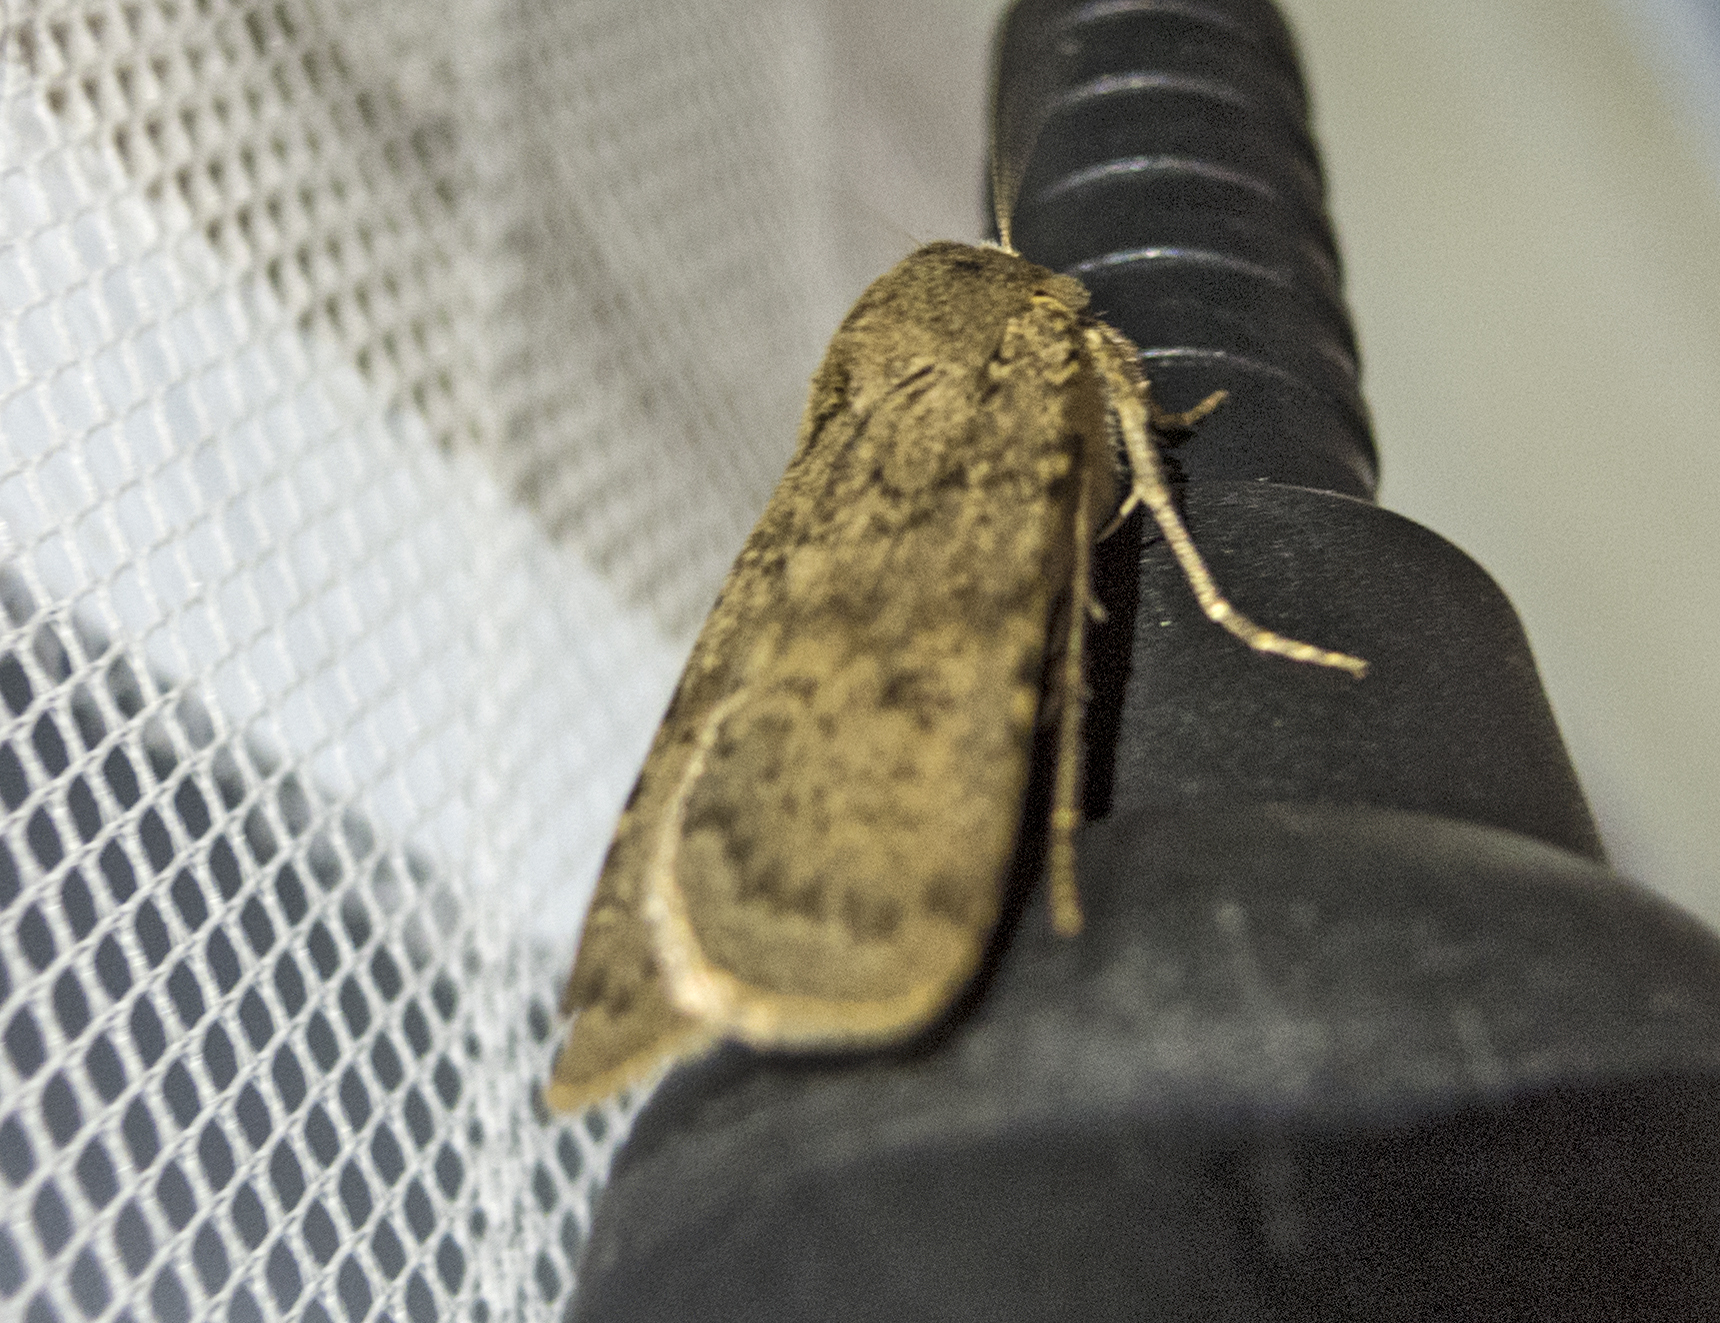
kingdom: Animalia
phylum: Arthropoda
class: Insecta
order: Lepidoptera
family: Noctuidae
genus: Rhyacia
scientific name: Rhyacia simulans
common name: Dotted rustic
